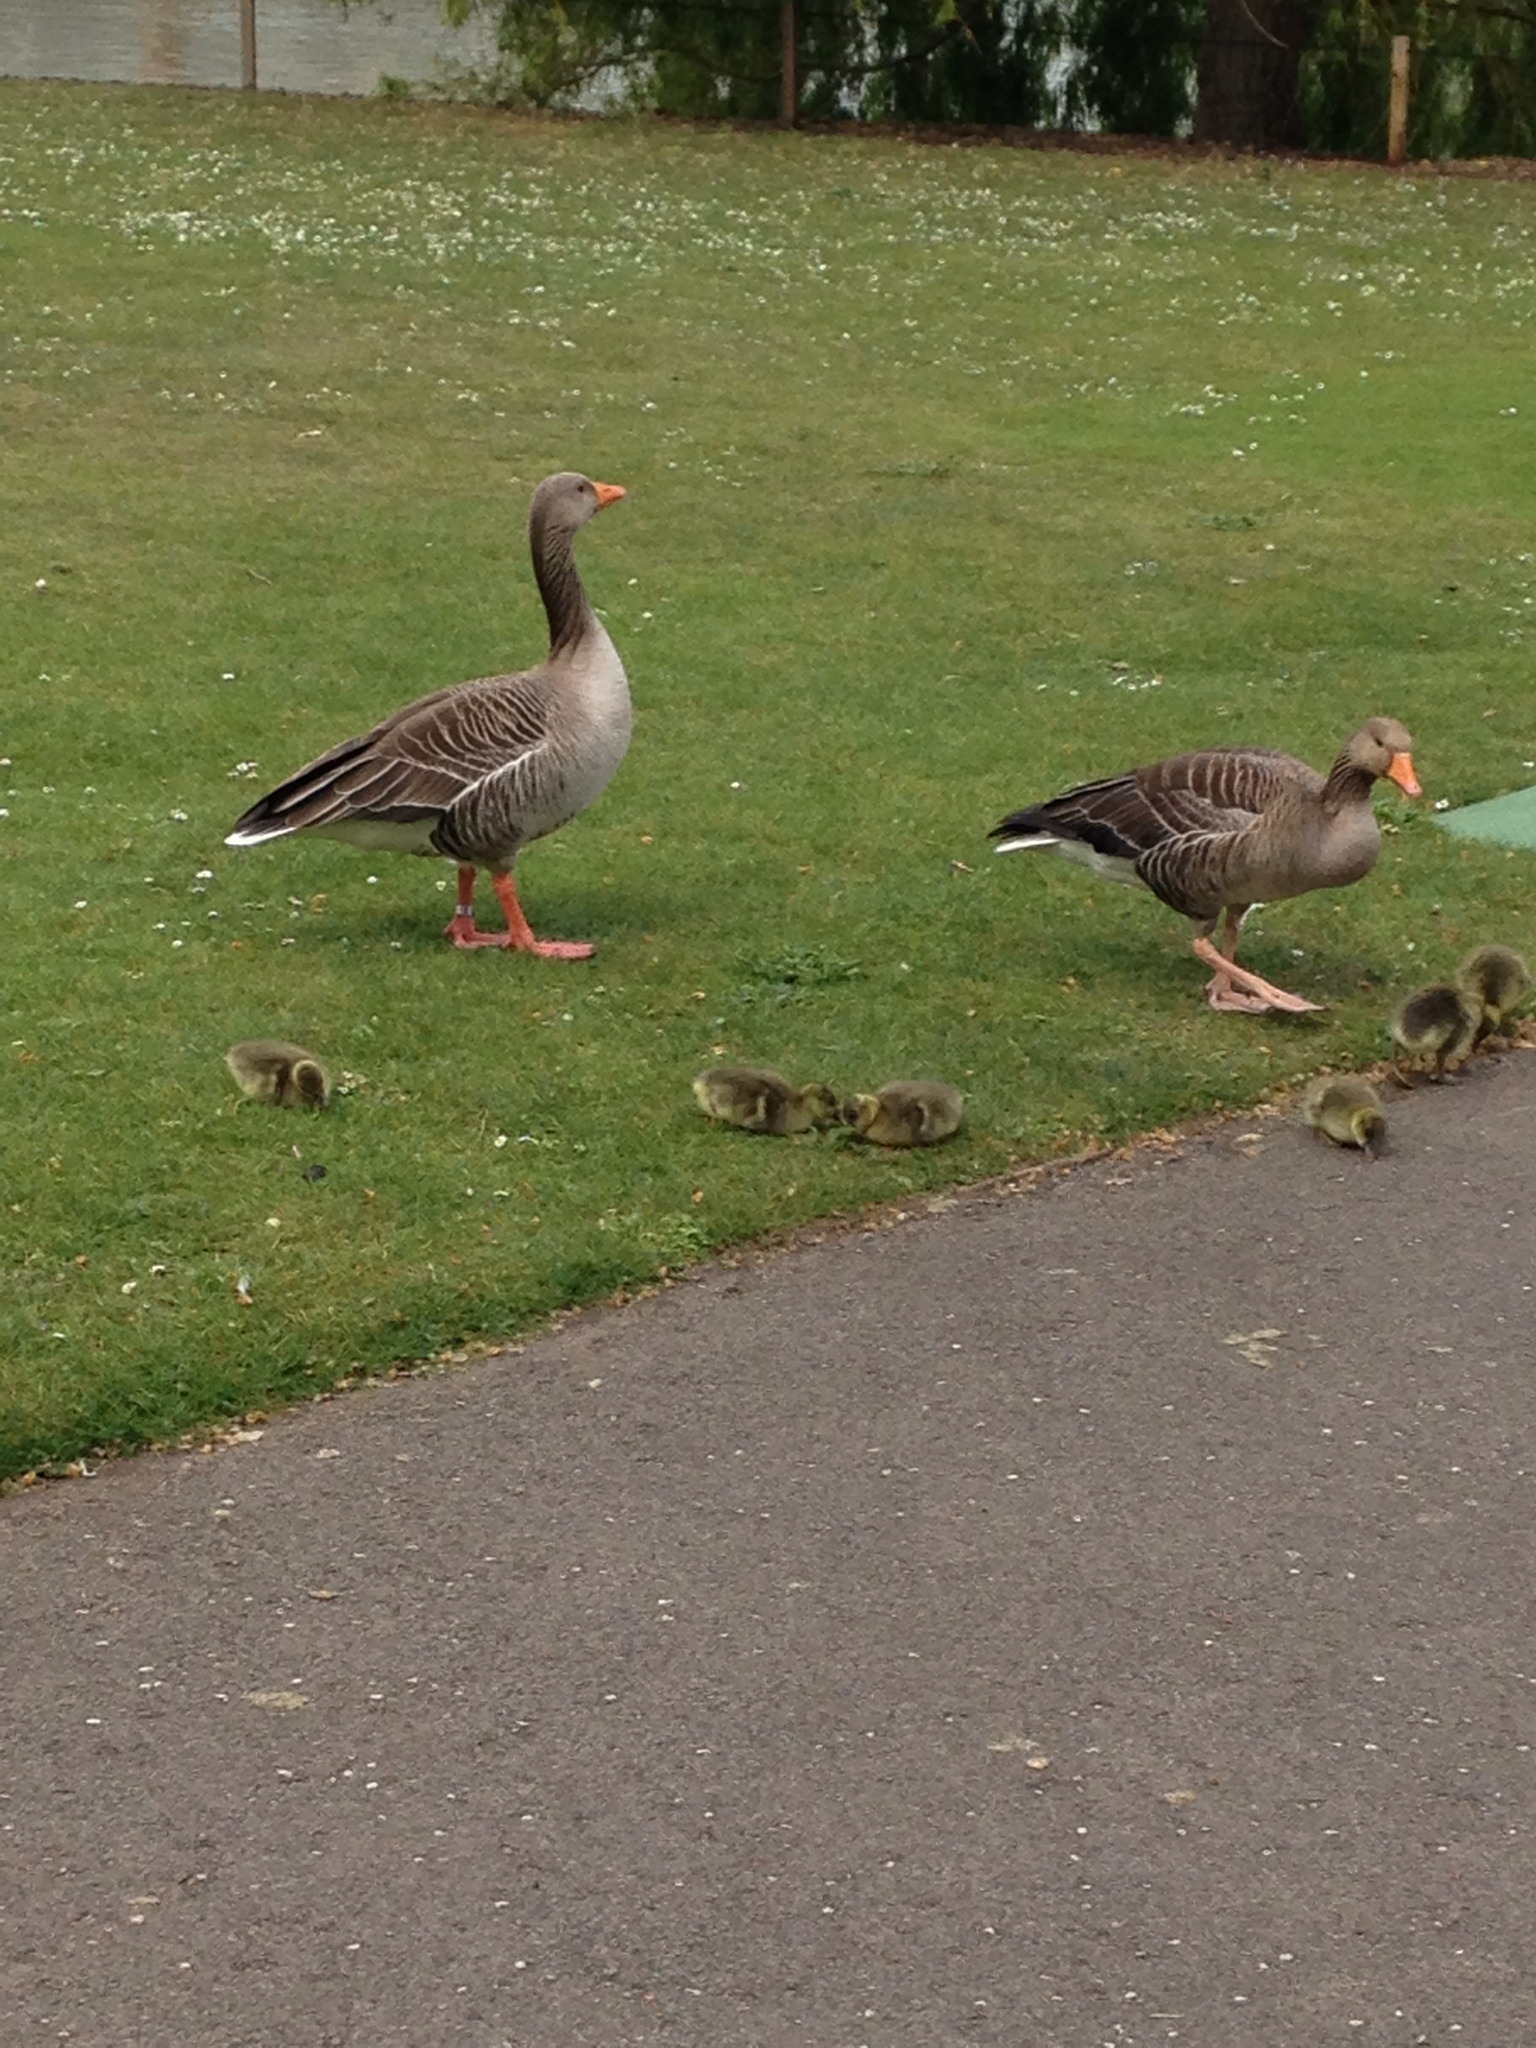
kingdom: Animalia
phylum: Chordata
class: Aves
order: Anseriformes
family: Anatidae
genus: Anser
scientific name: Anser anser
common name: Greylag goose
